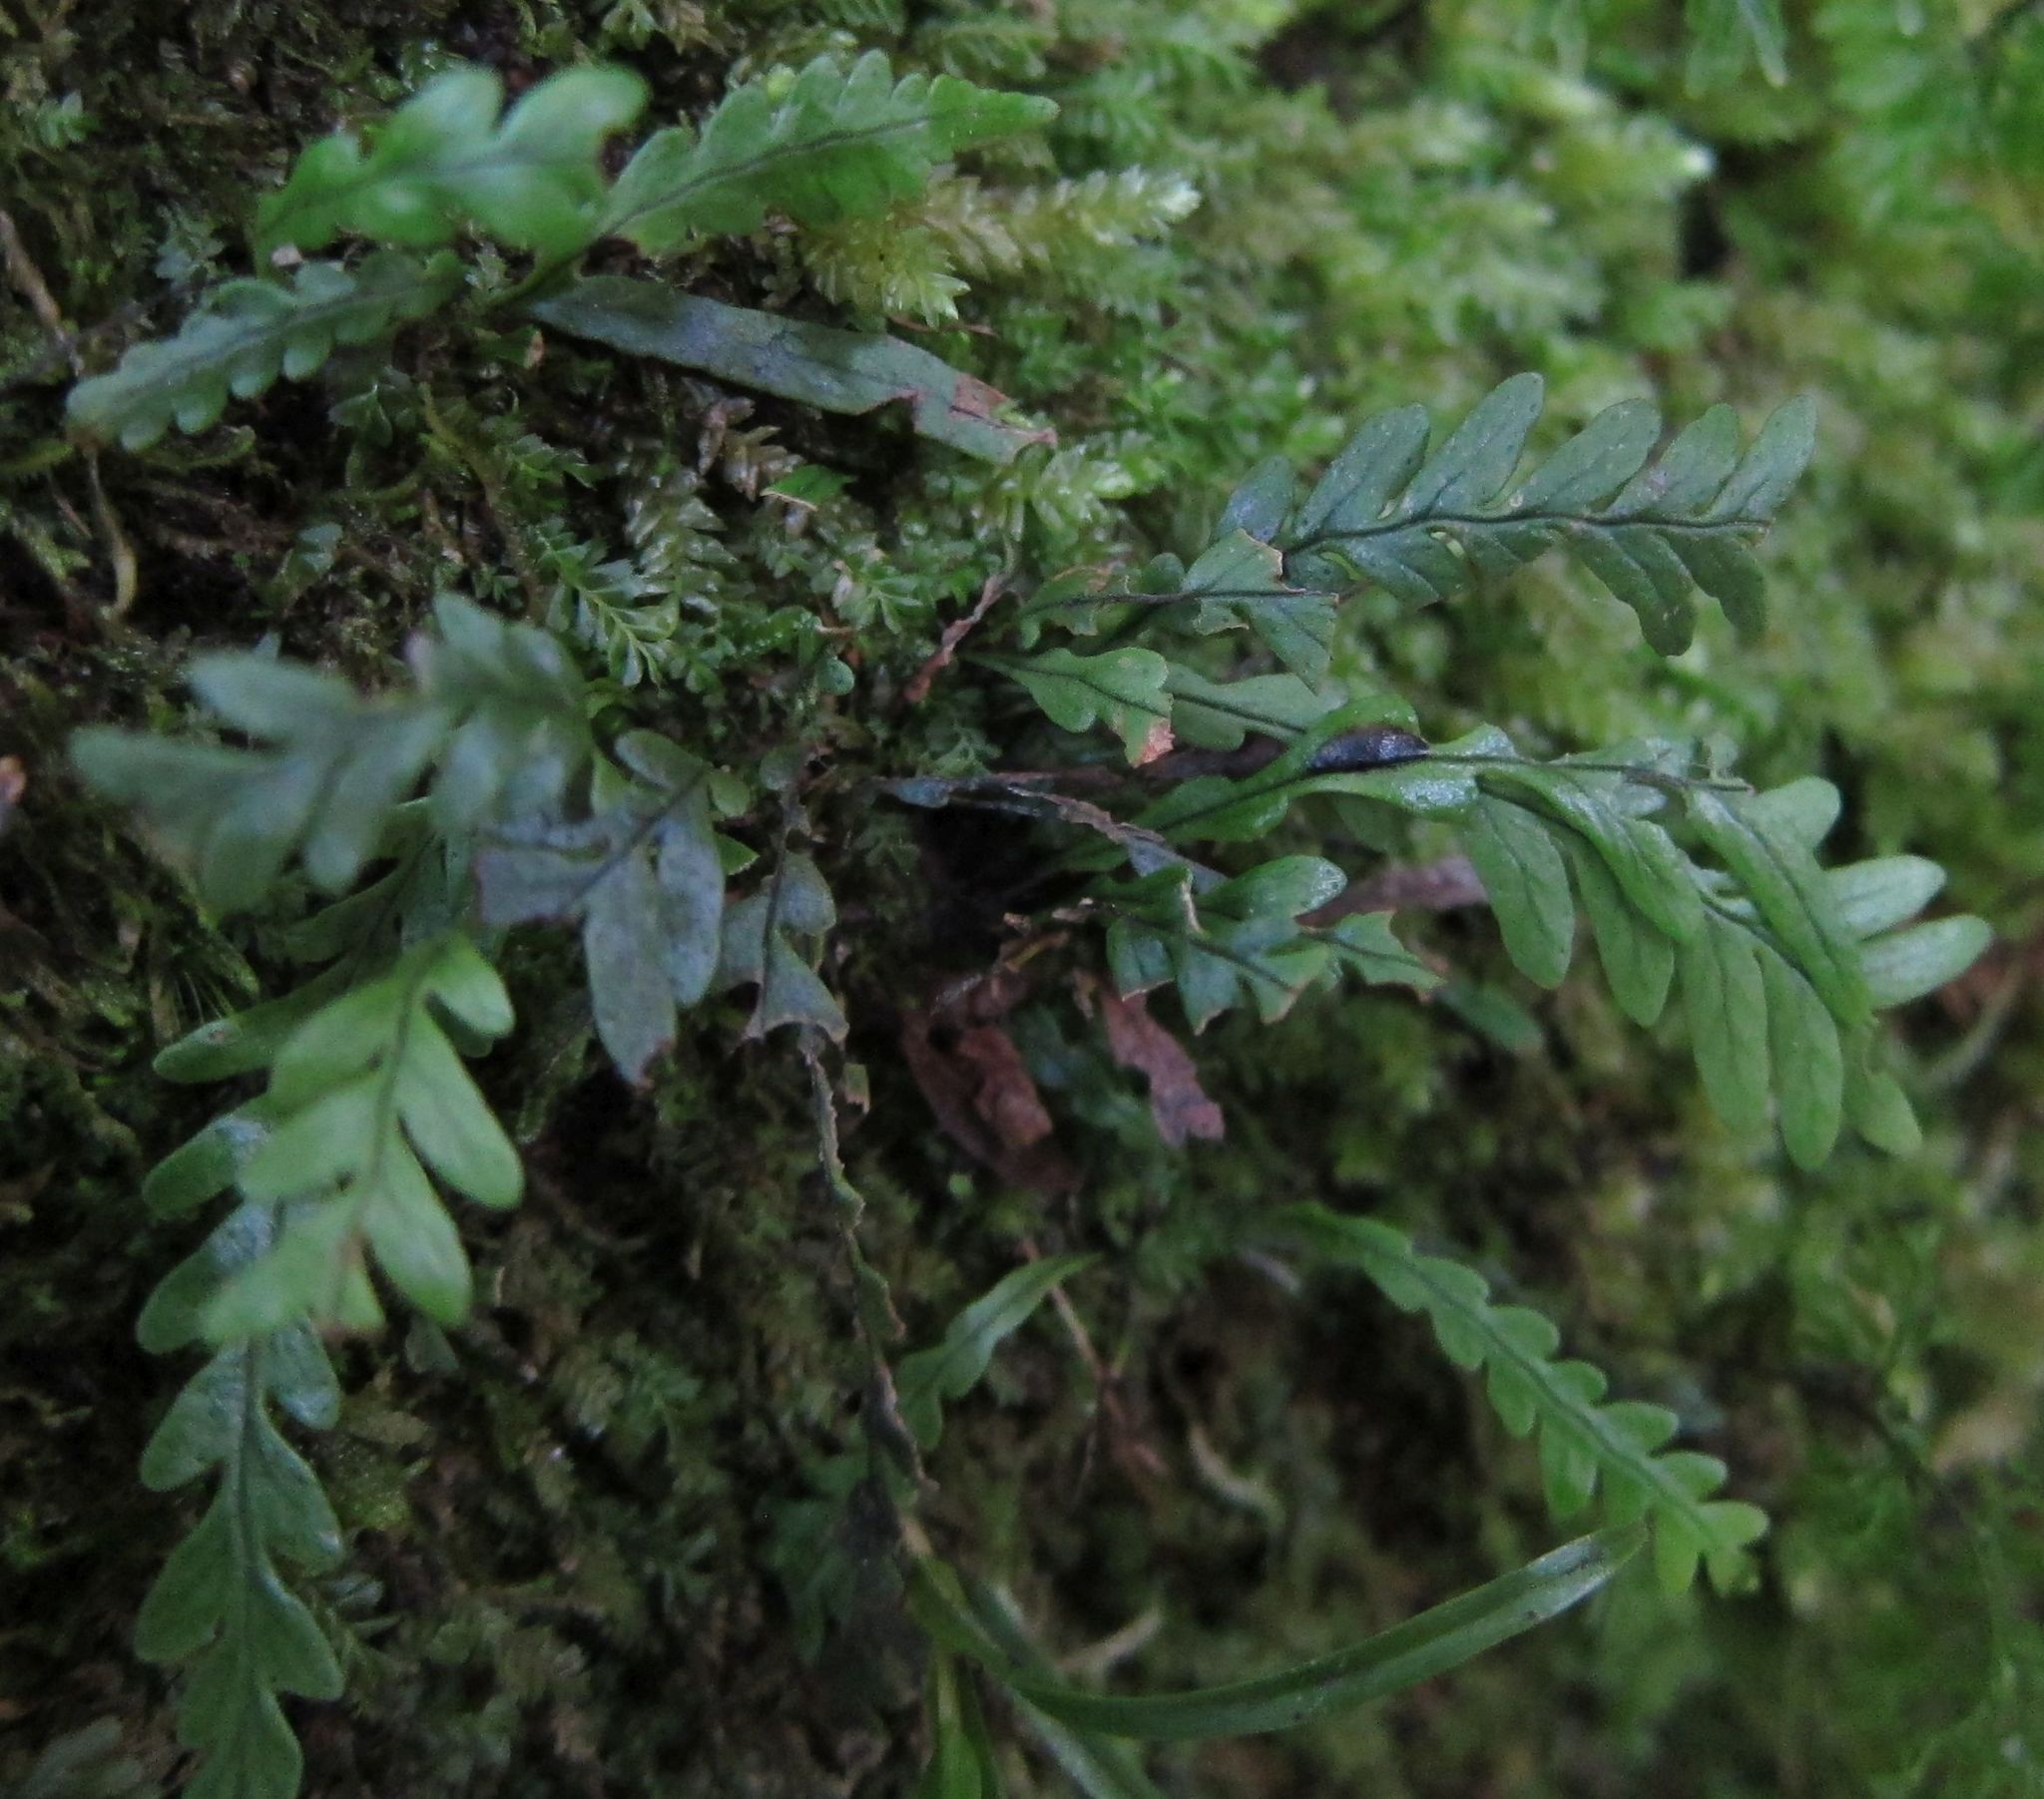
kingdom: Plantae
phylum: Tracheophyta
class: Polypodiopsida
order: Polypodiales
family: Polypodiaceae
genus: Notogrammitis
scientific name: Notogrammitis heterophylla
